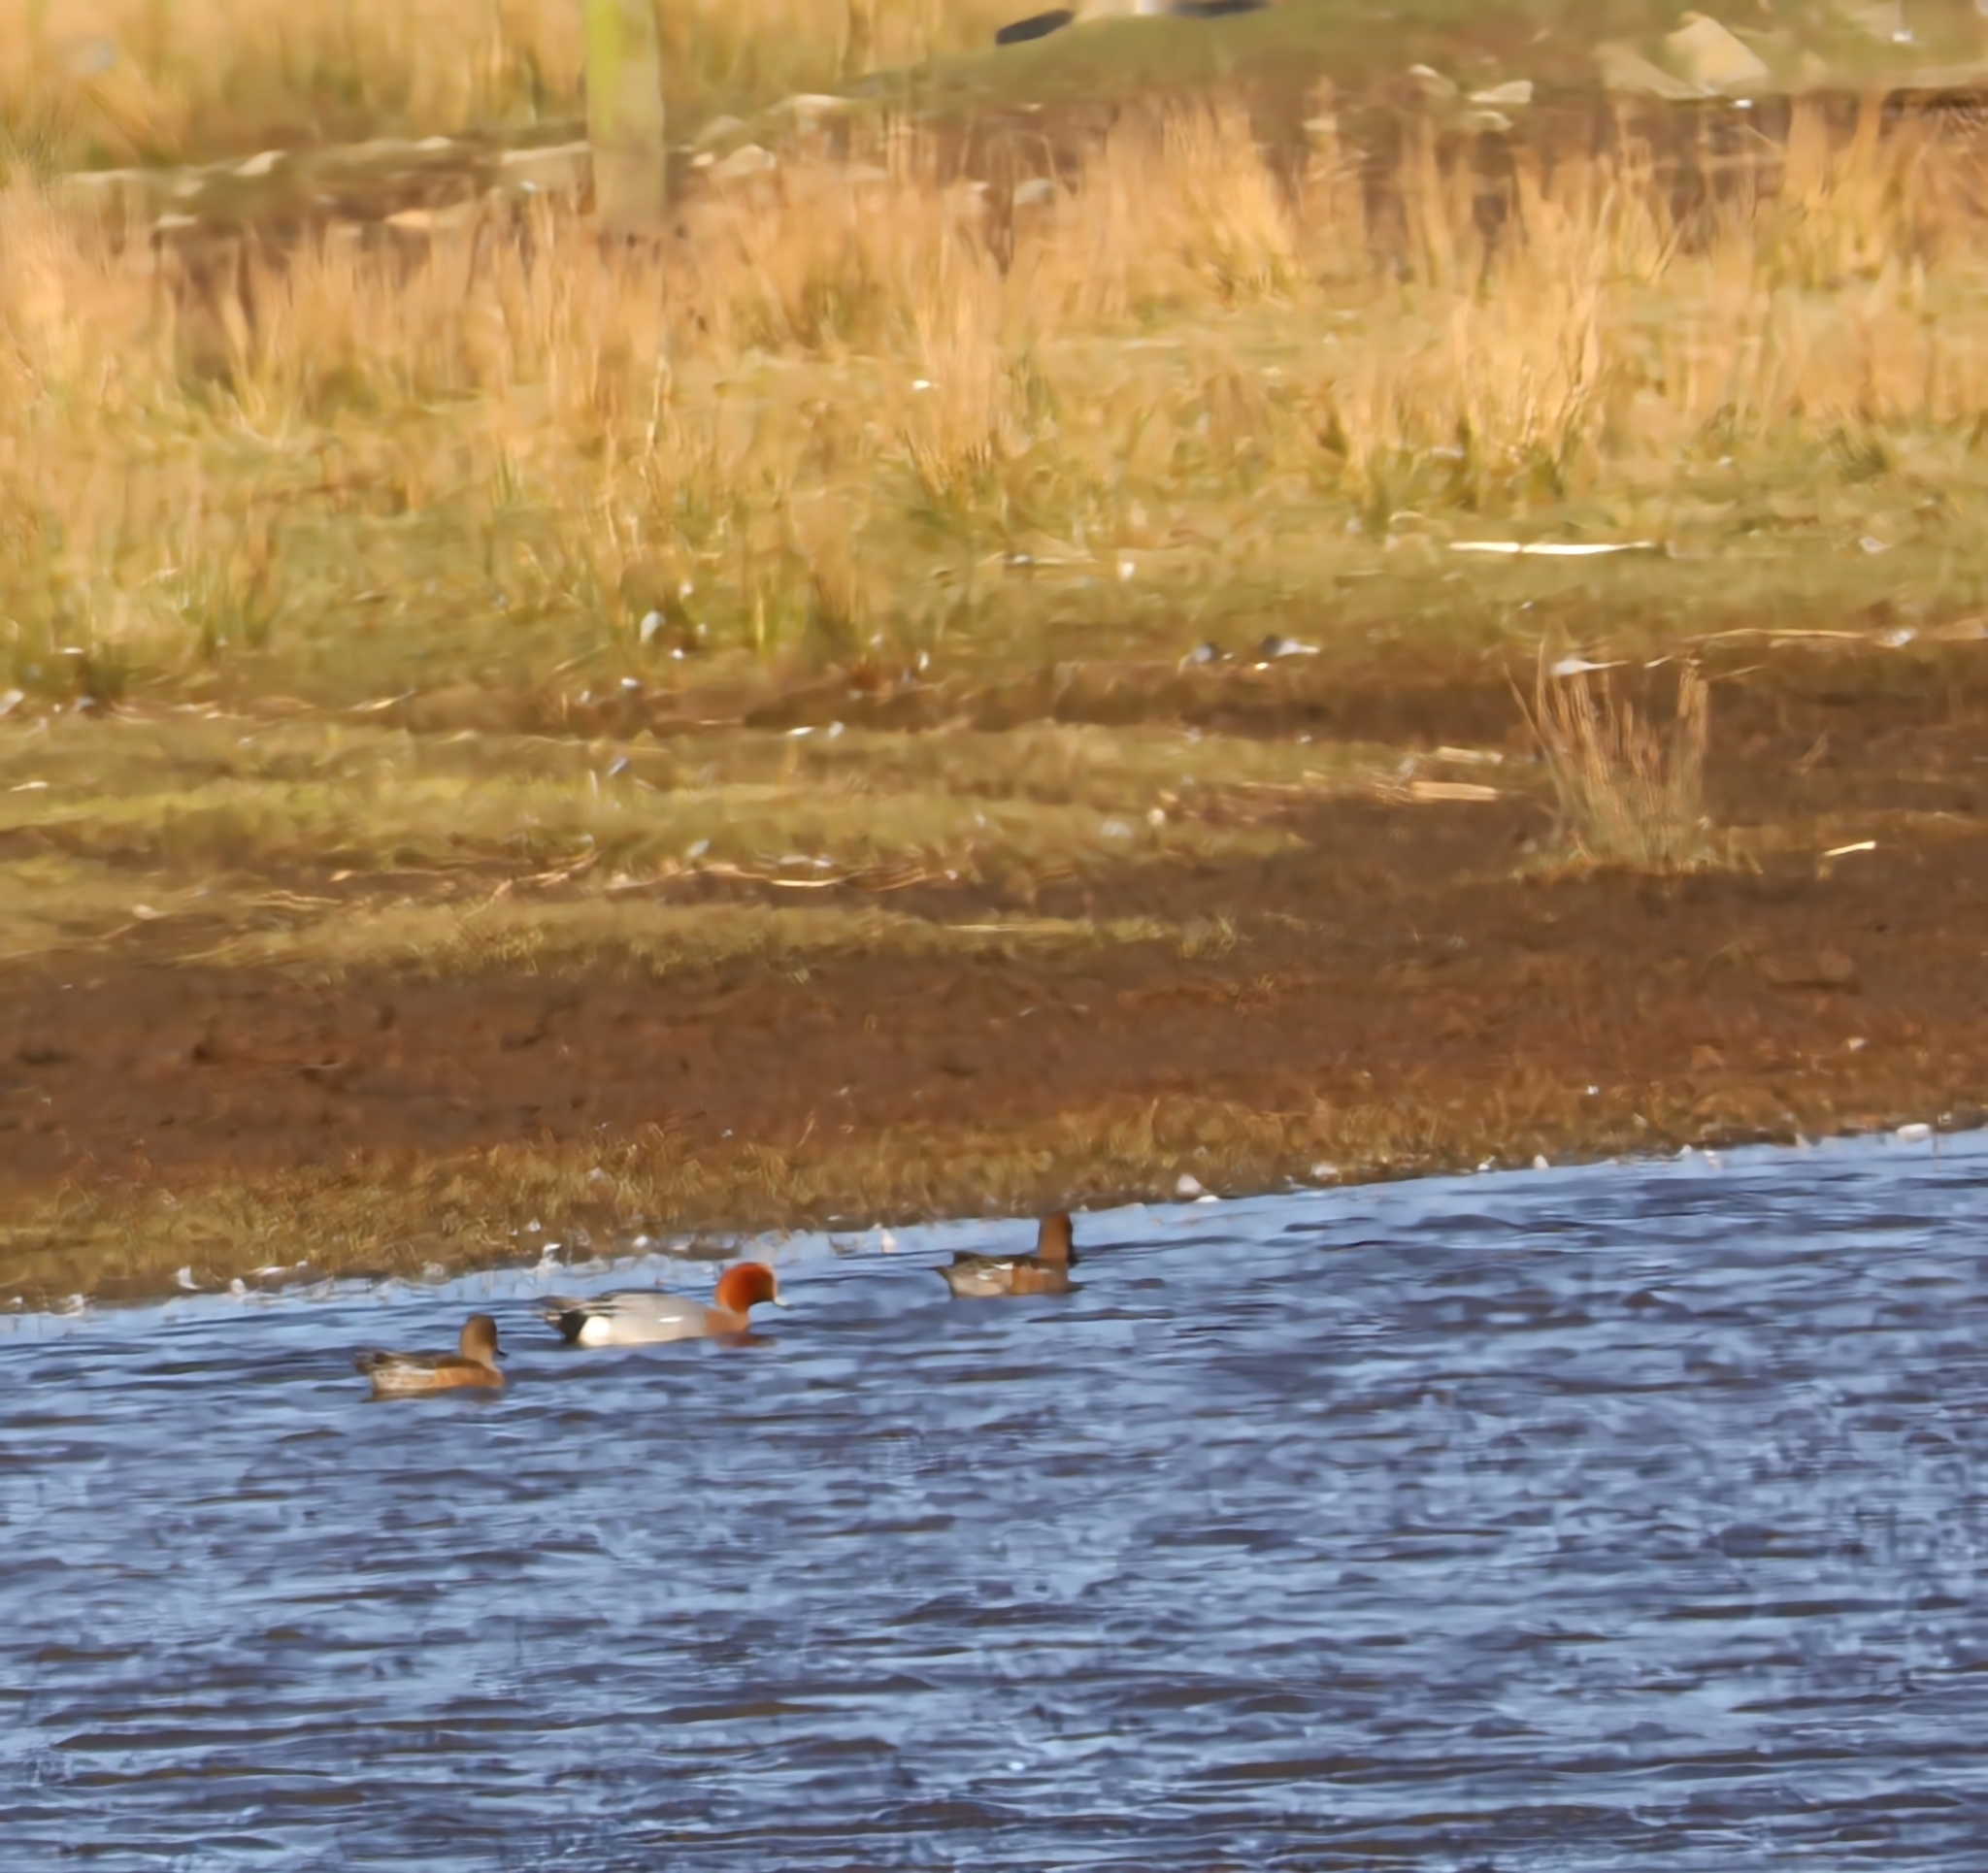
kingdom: Animalia
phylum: Chordata
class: Aves
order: Anseriformes
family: Anatidae
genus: Mareca
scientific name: Mareca penelope
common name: Eurasian wigeon
